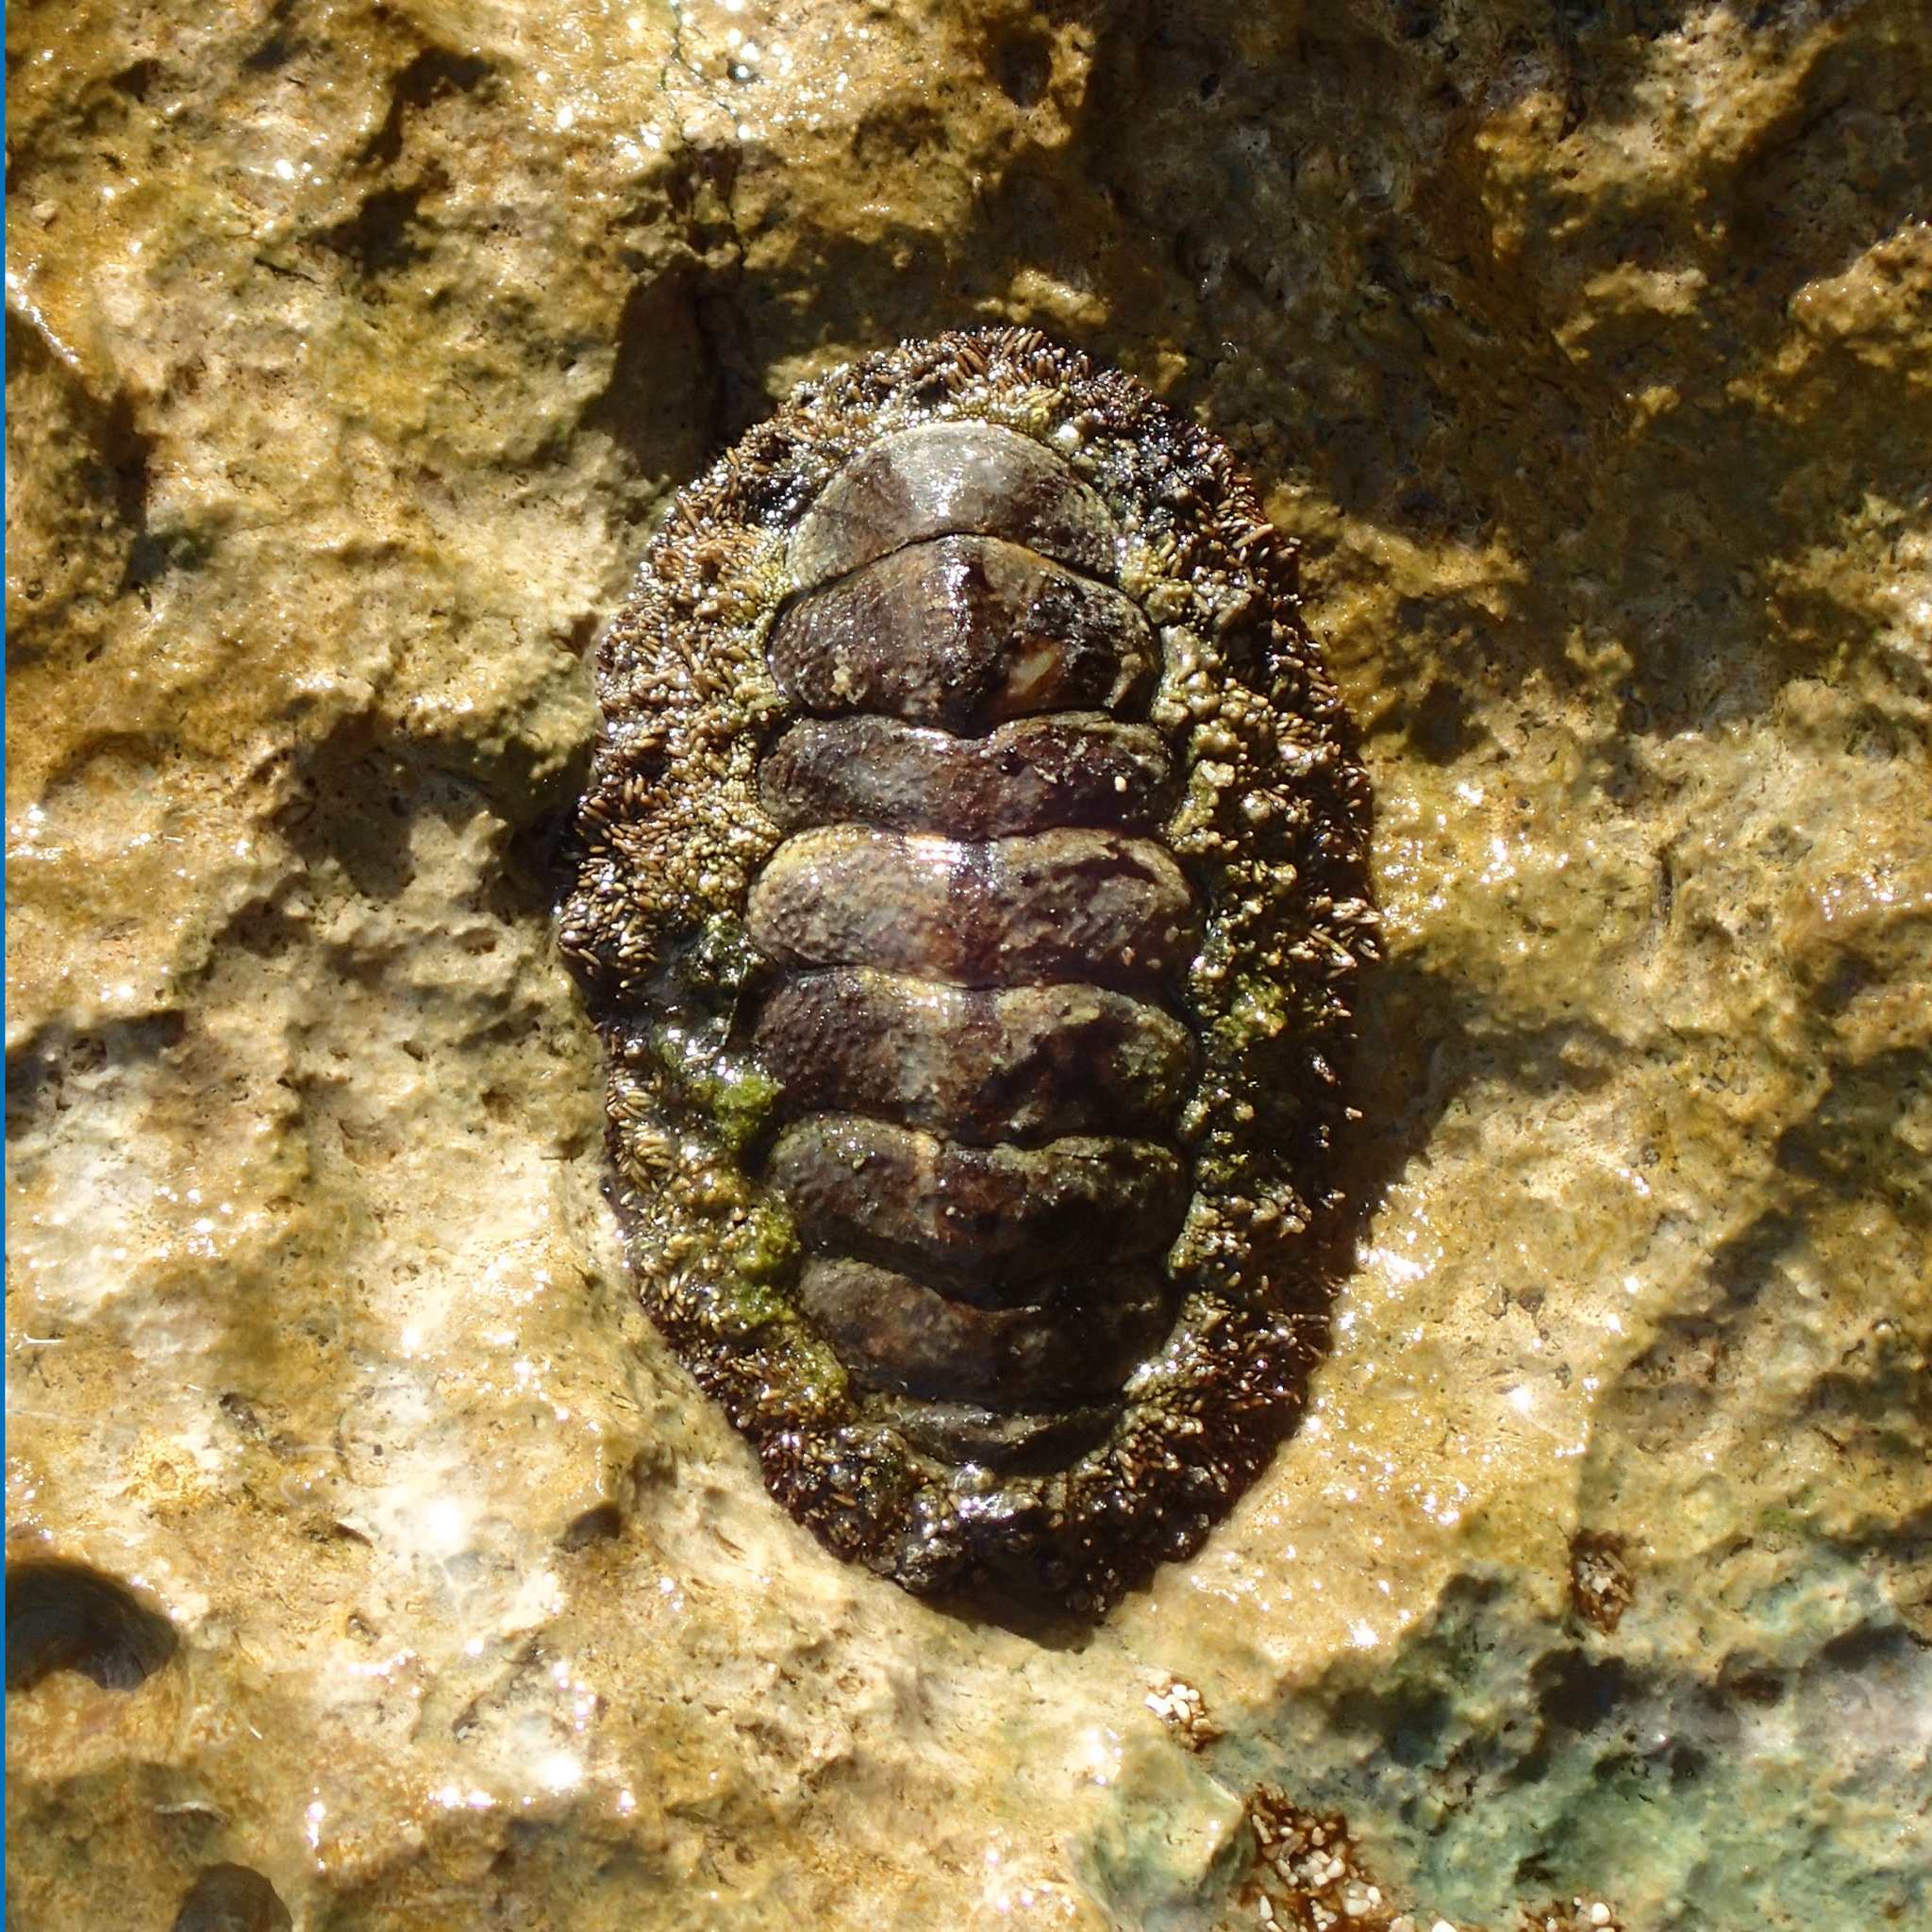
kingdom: Animalia
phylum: Mollusca
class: Polyplacophora
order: Chitonida
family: Chitonidae
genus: Acanthopleura
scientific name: Acanthopleura granulata
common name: West indian fuzzy chiton
